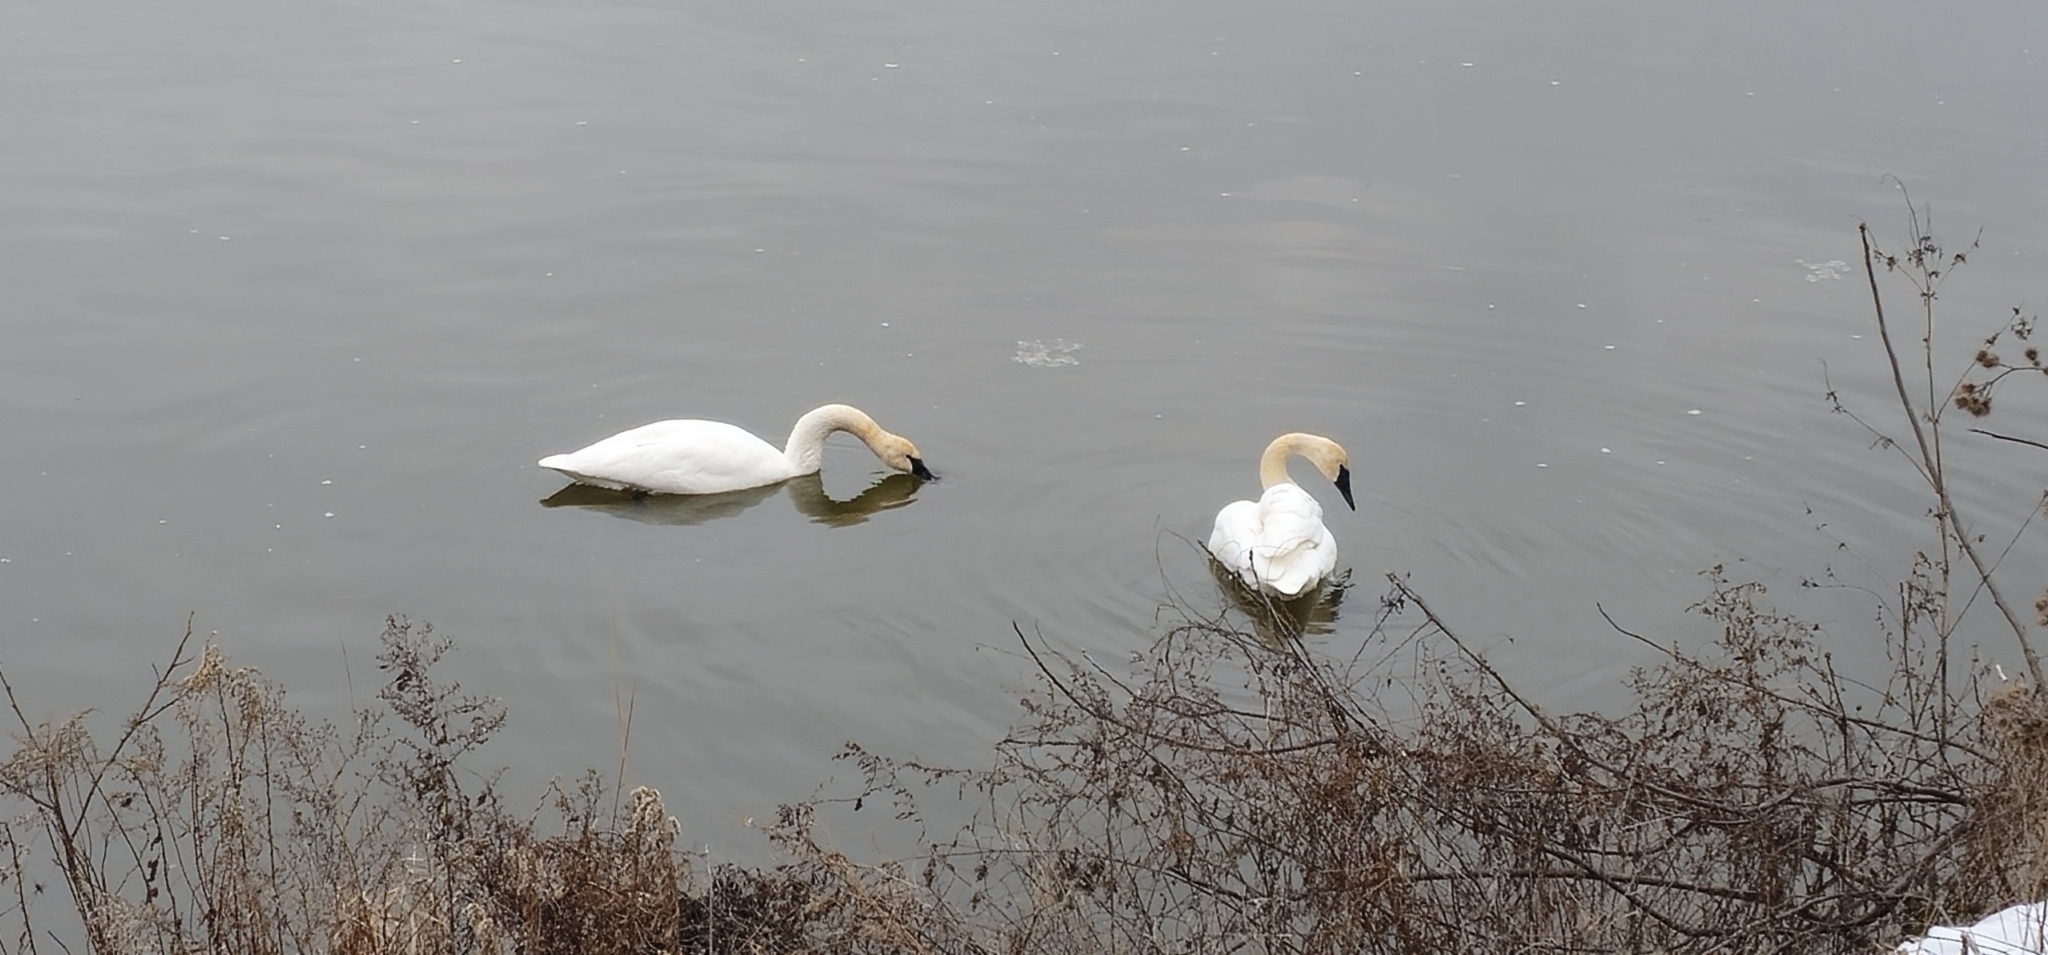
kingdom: Animalia
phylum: Chordata
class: Aves
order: Anseriformes
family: Anatidae
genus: Cygnus
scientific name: Cygnus buccinator
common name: Trumpeter swan
